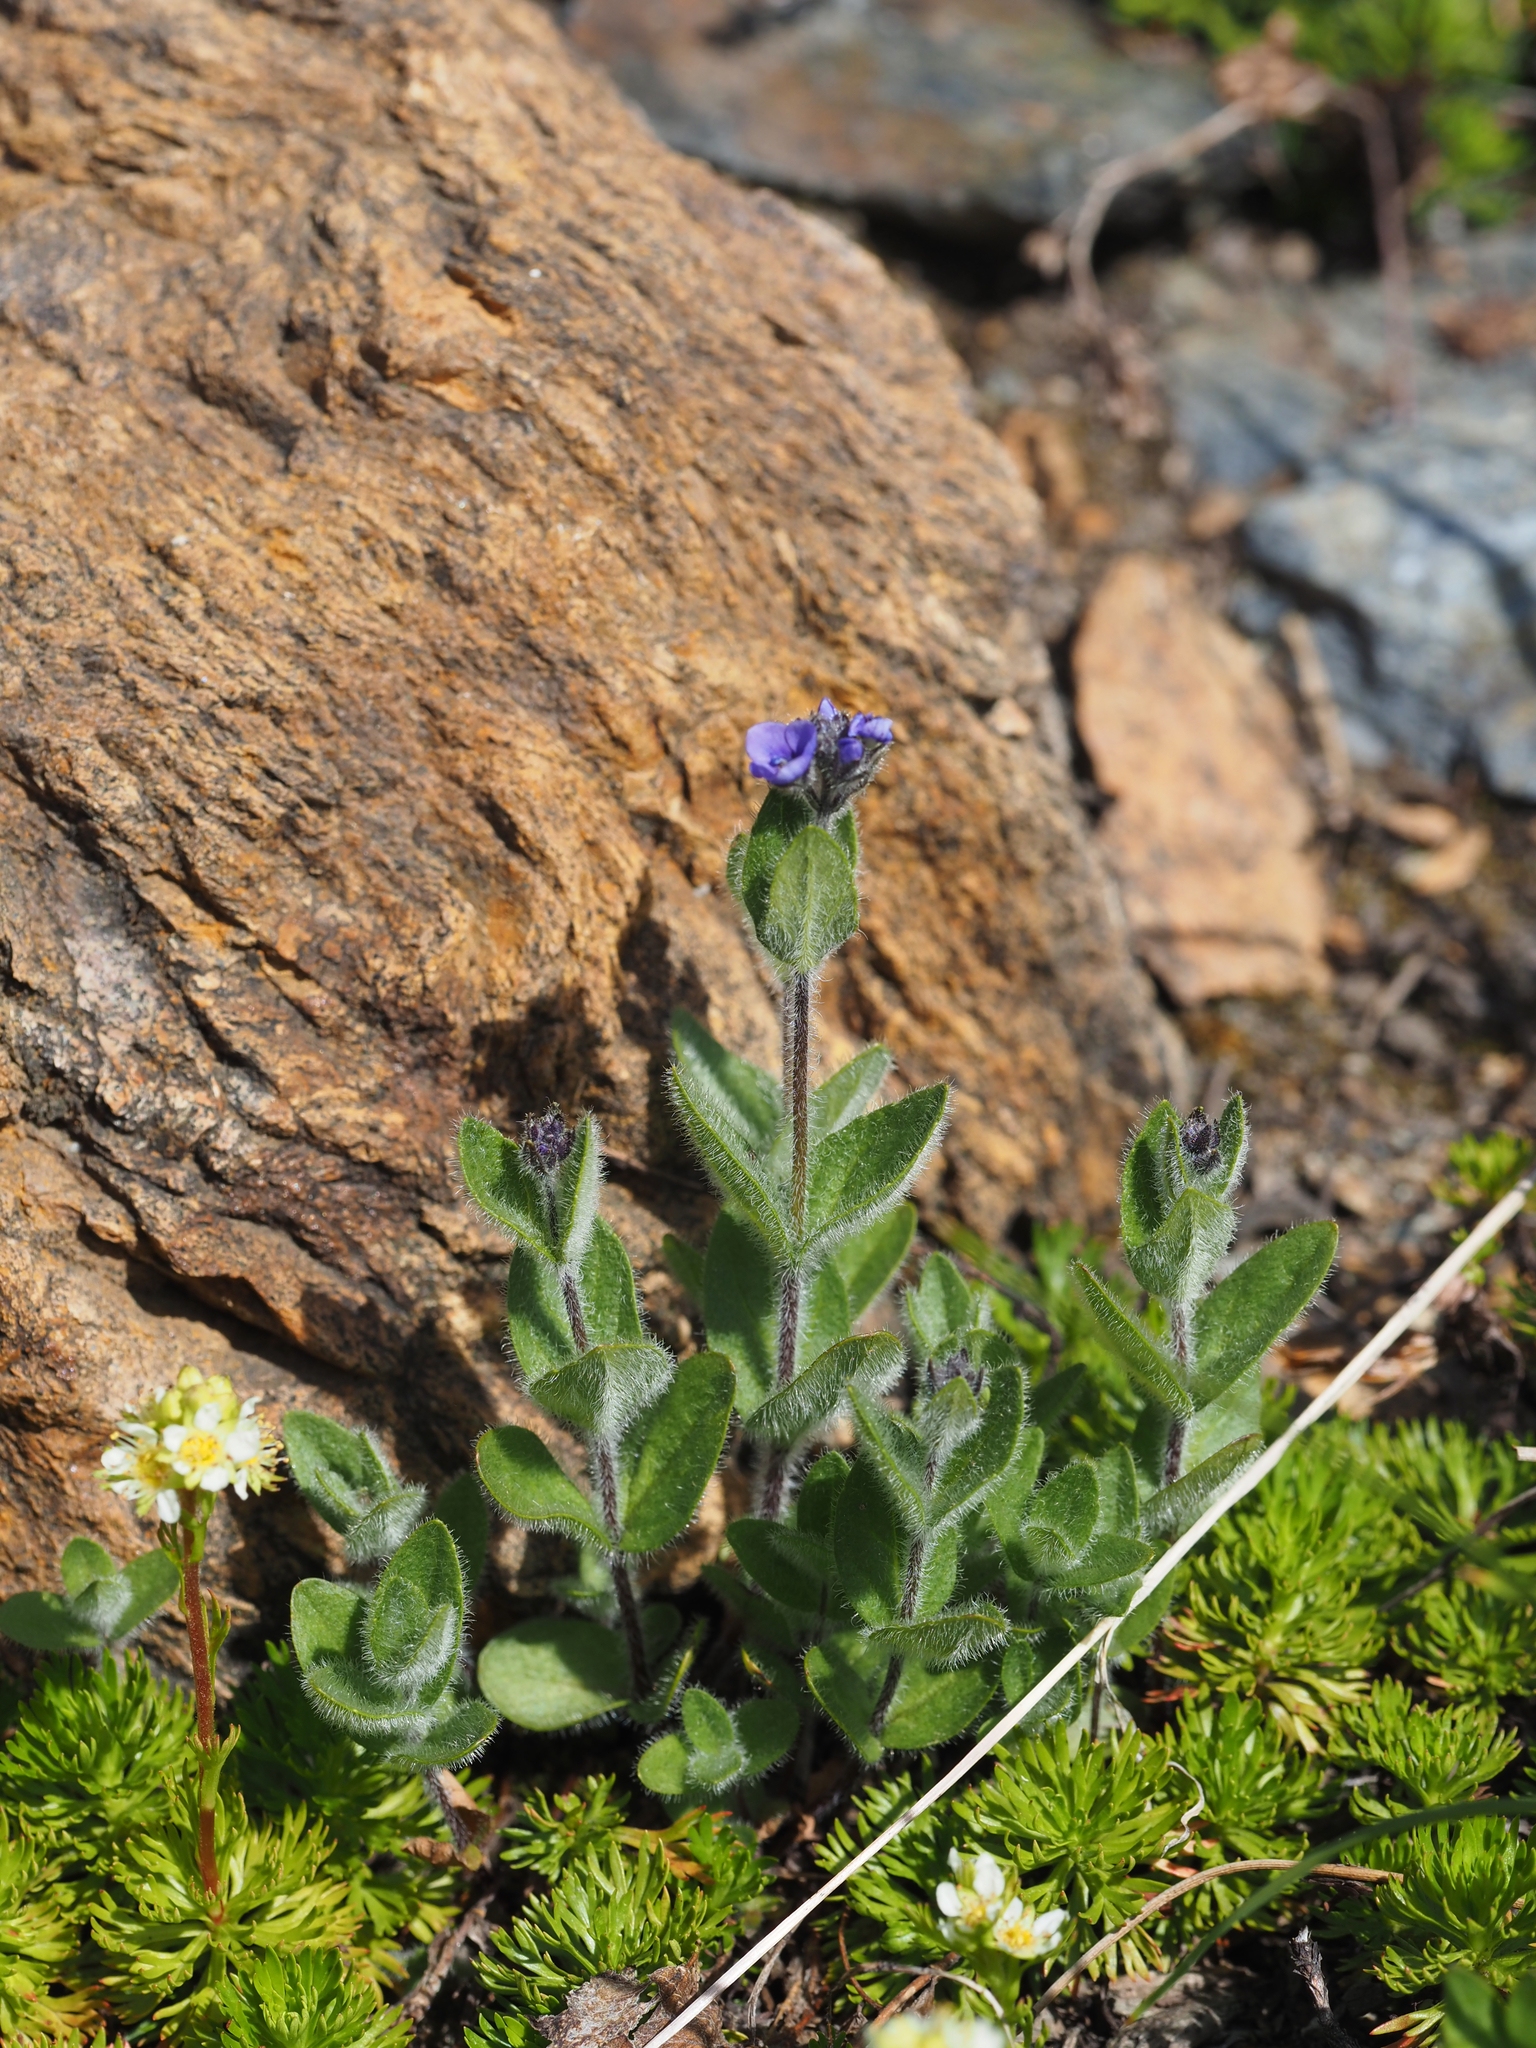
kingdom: Plantae
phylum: Tracheophyta
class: Magnoliopsida
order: Lamiales
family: Plantaginaceae
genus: Veronica
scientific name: Veronica wormskjoldii
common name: American alpine speedwell
